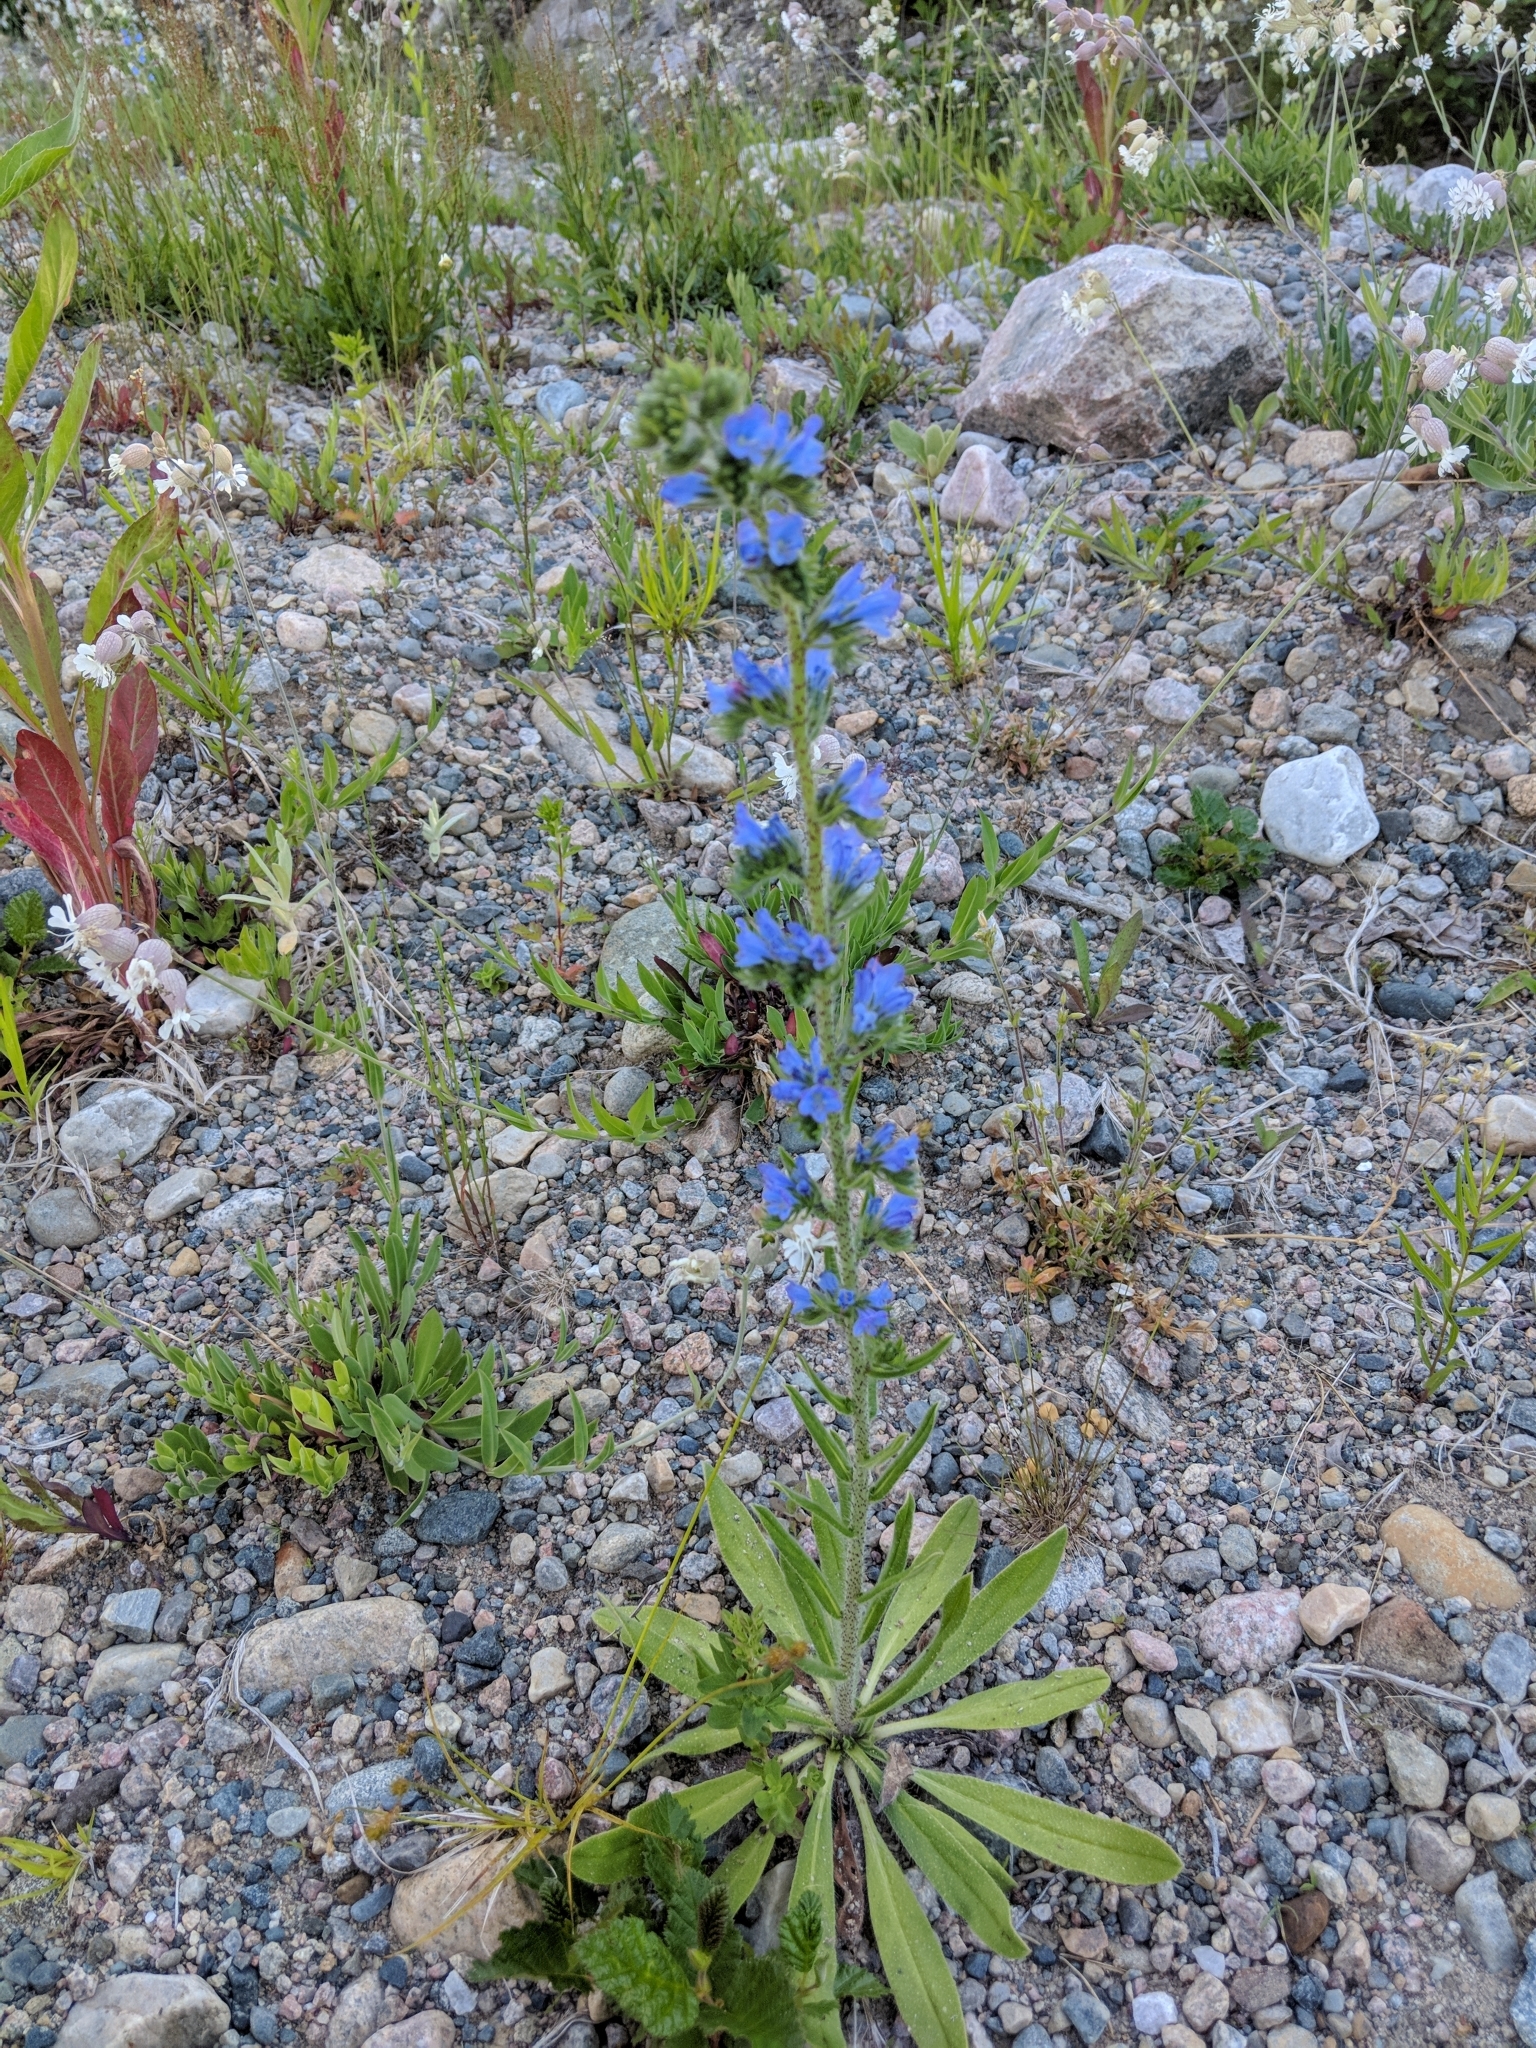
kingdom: Plantae
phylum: Tracheophyta
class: Magnoliopsida
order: Boraginales
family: Boraginaceae
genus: Echium
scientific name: Echium vulgare
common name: Common viper's bugloss
